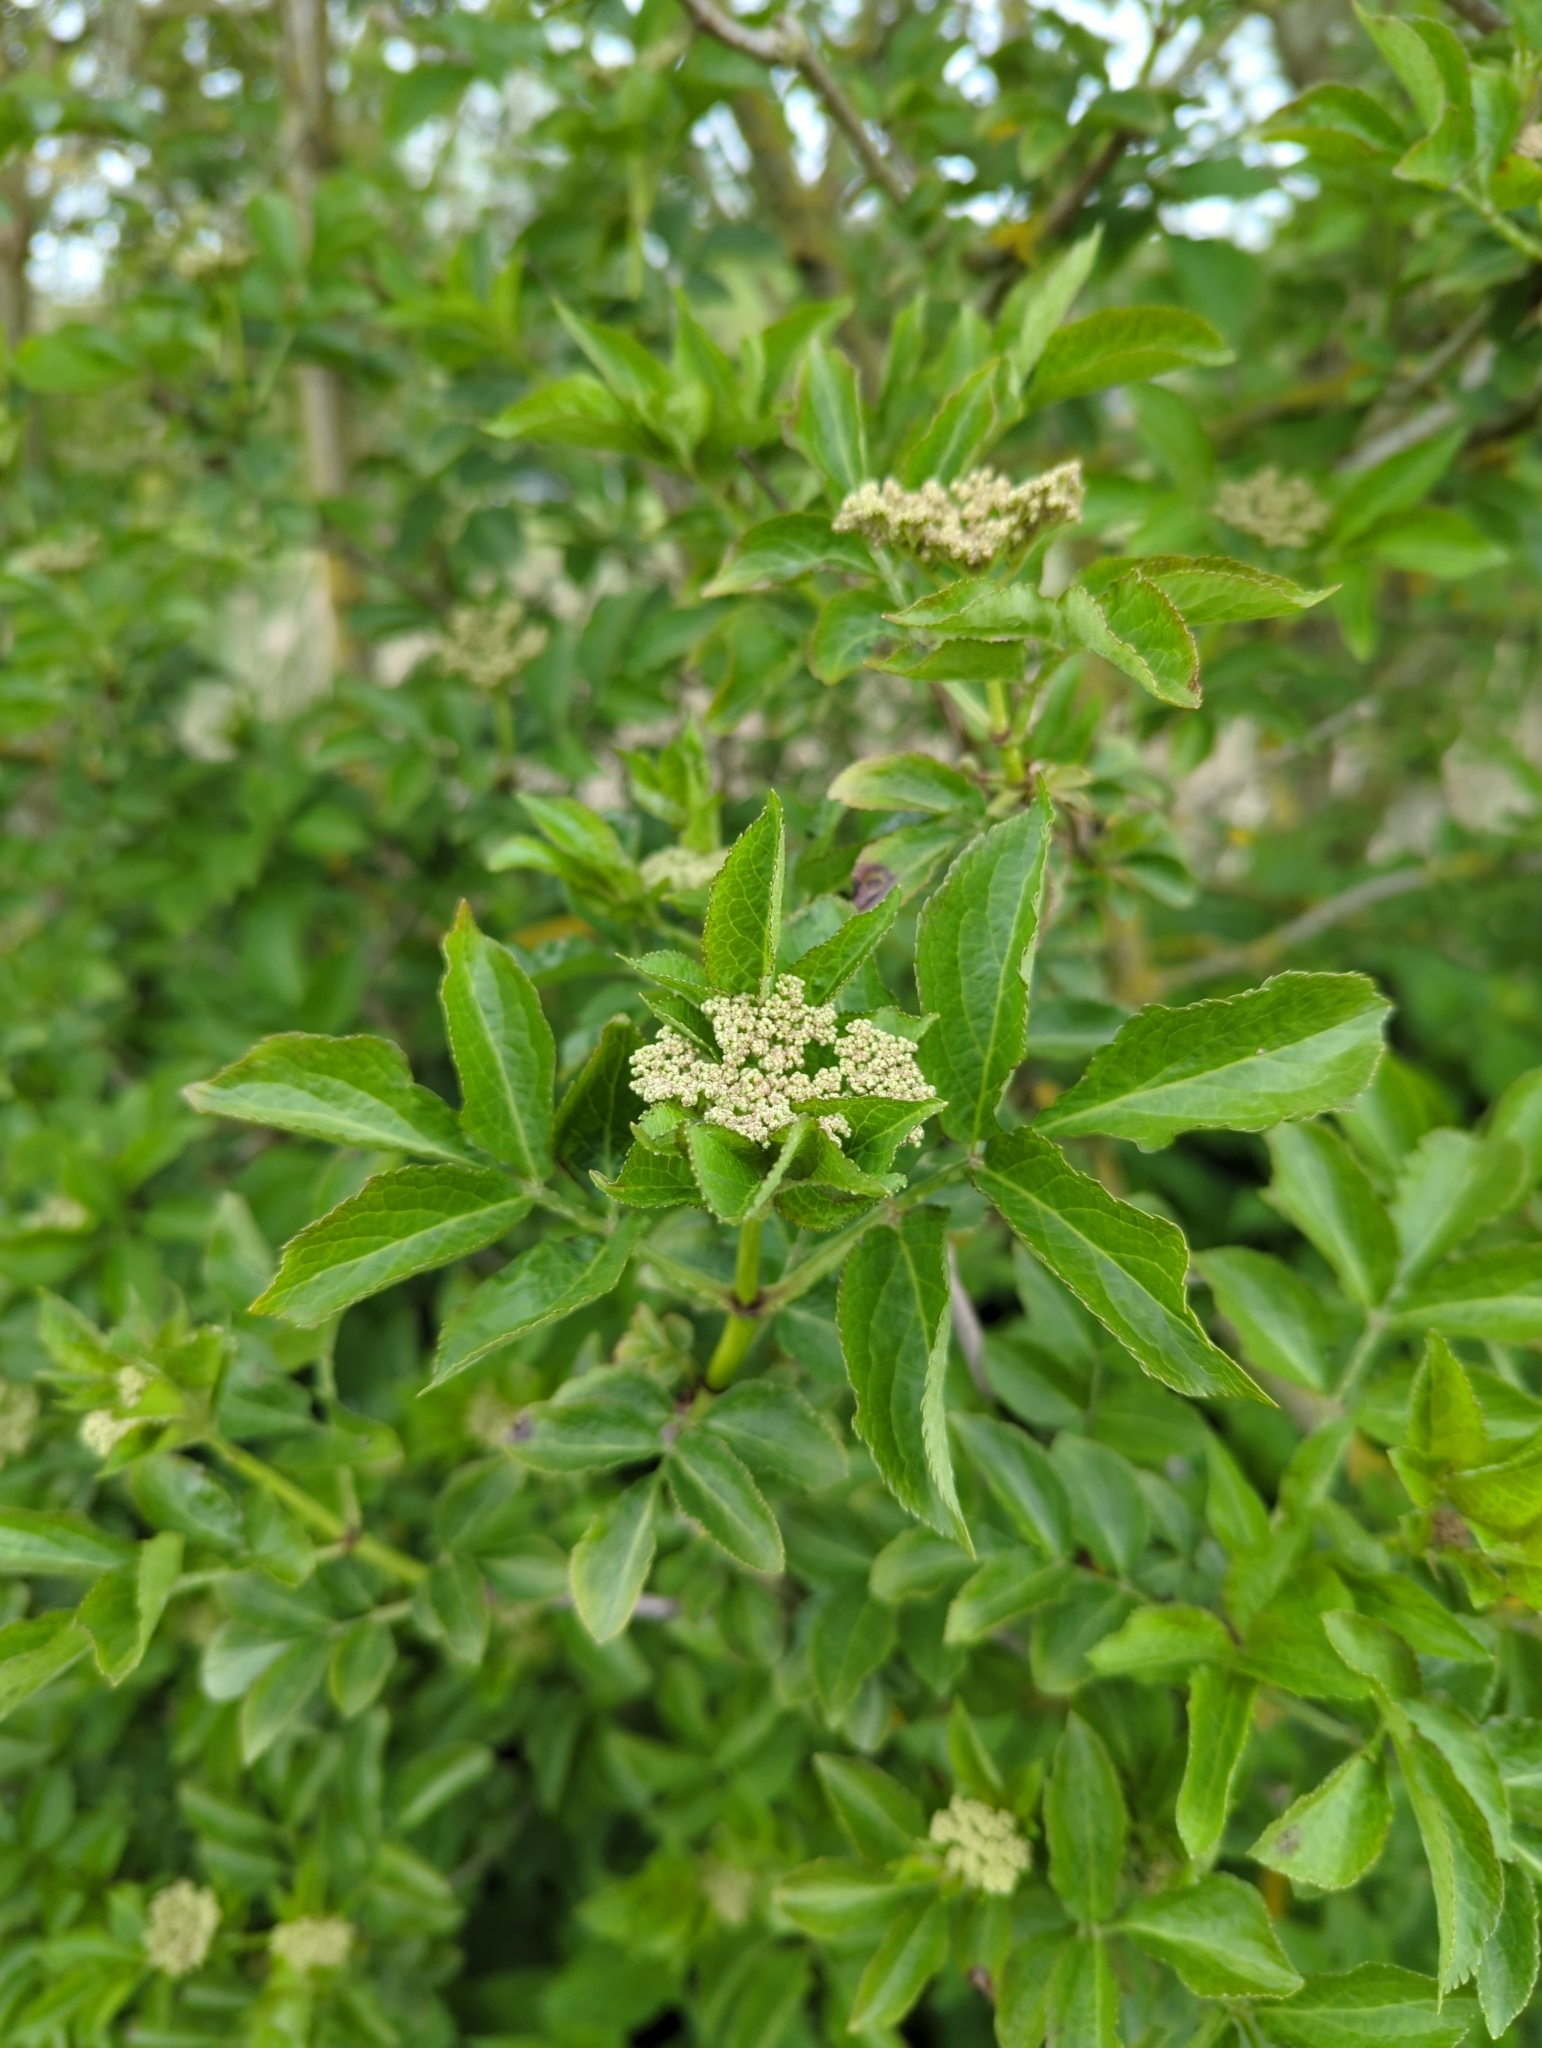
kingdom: Plantae
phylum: Tracheophyta
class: Magnoliopsida
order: Dipsacales
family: Viburnaceae
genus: Sambucus
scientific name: Sambucus nigra
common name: Elder
